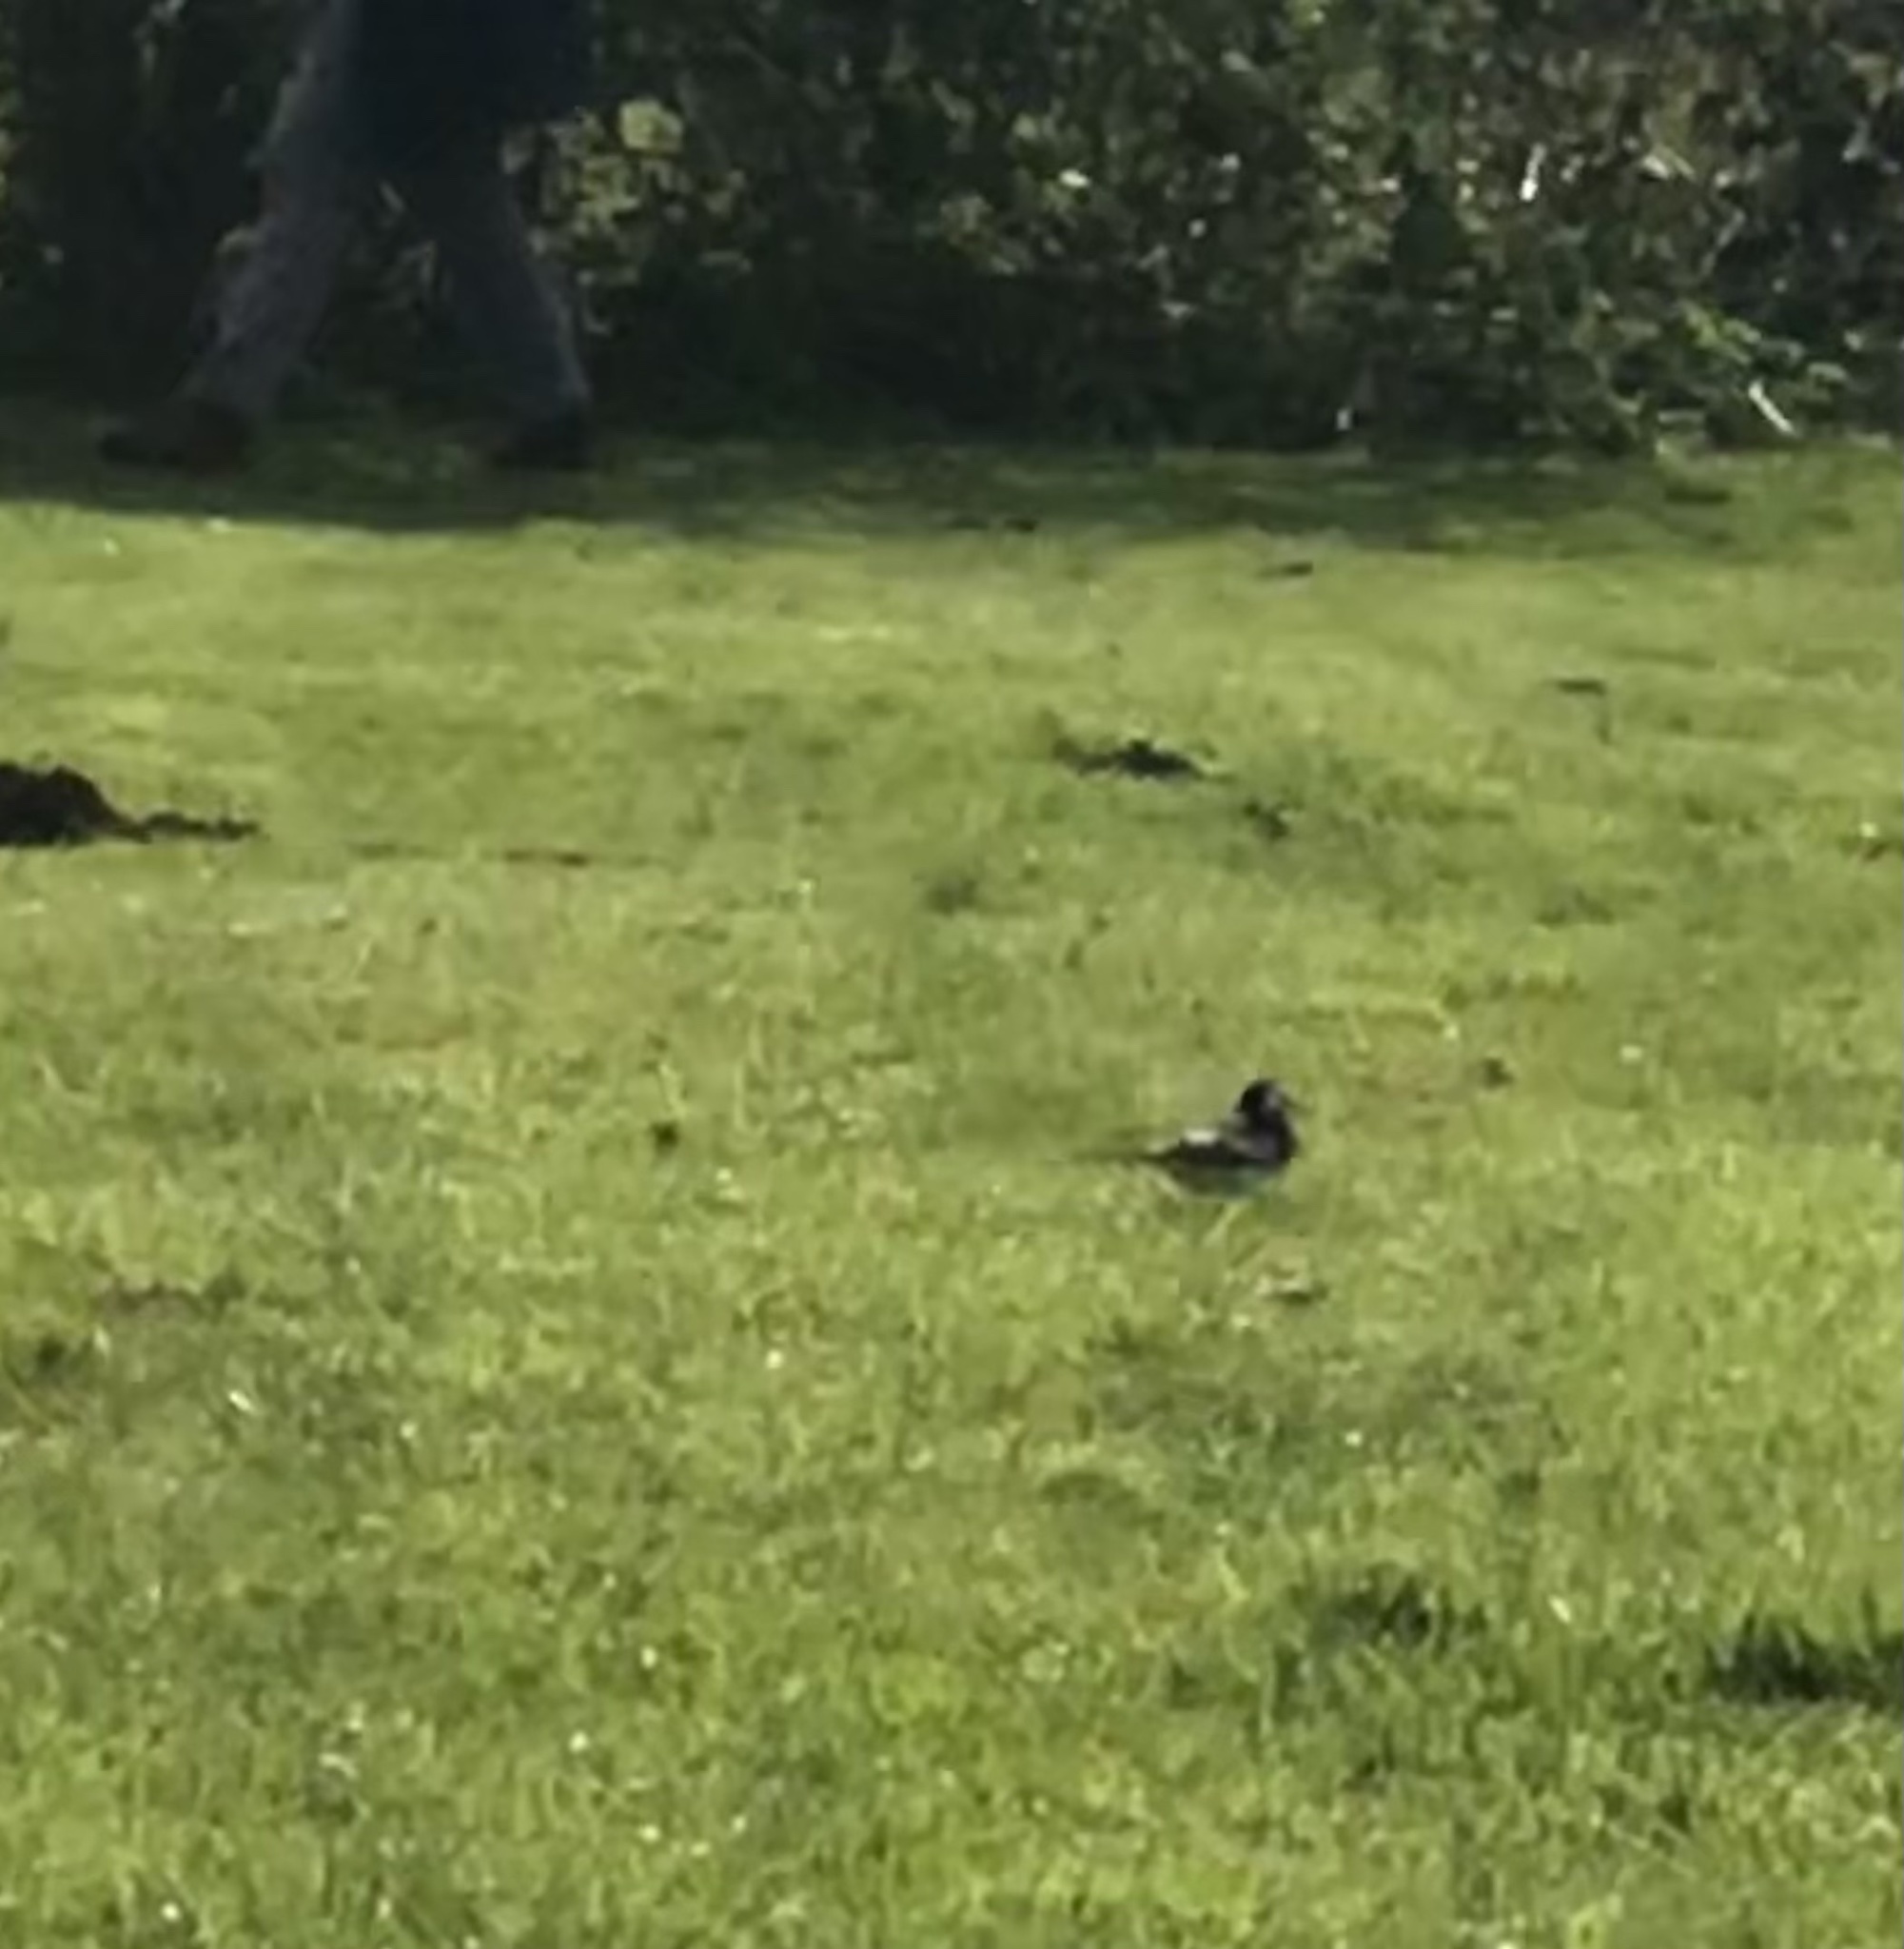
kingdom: Animalia
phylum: Chordata
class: Aves
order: Passeriformes
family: Motacillidae
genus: Motacilla
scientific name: Motacilla alba
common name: White wagtail
